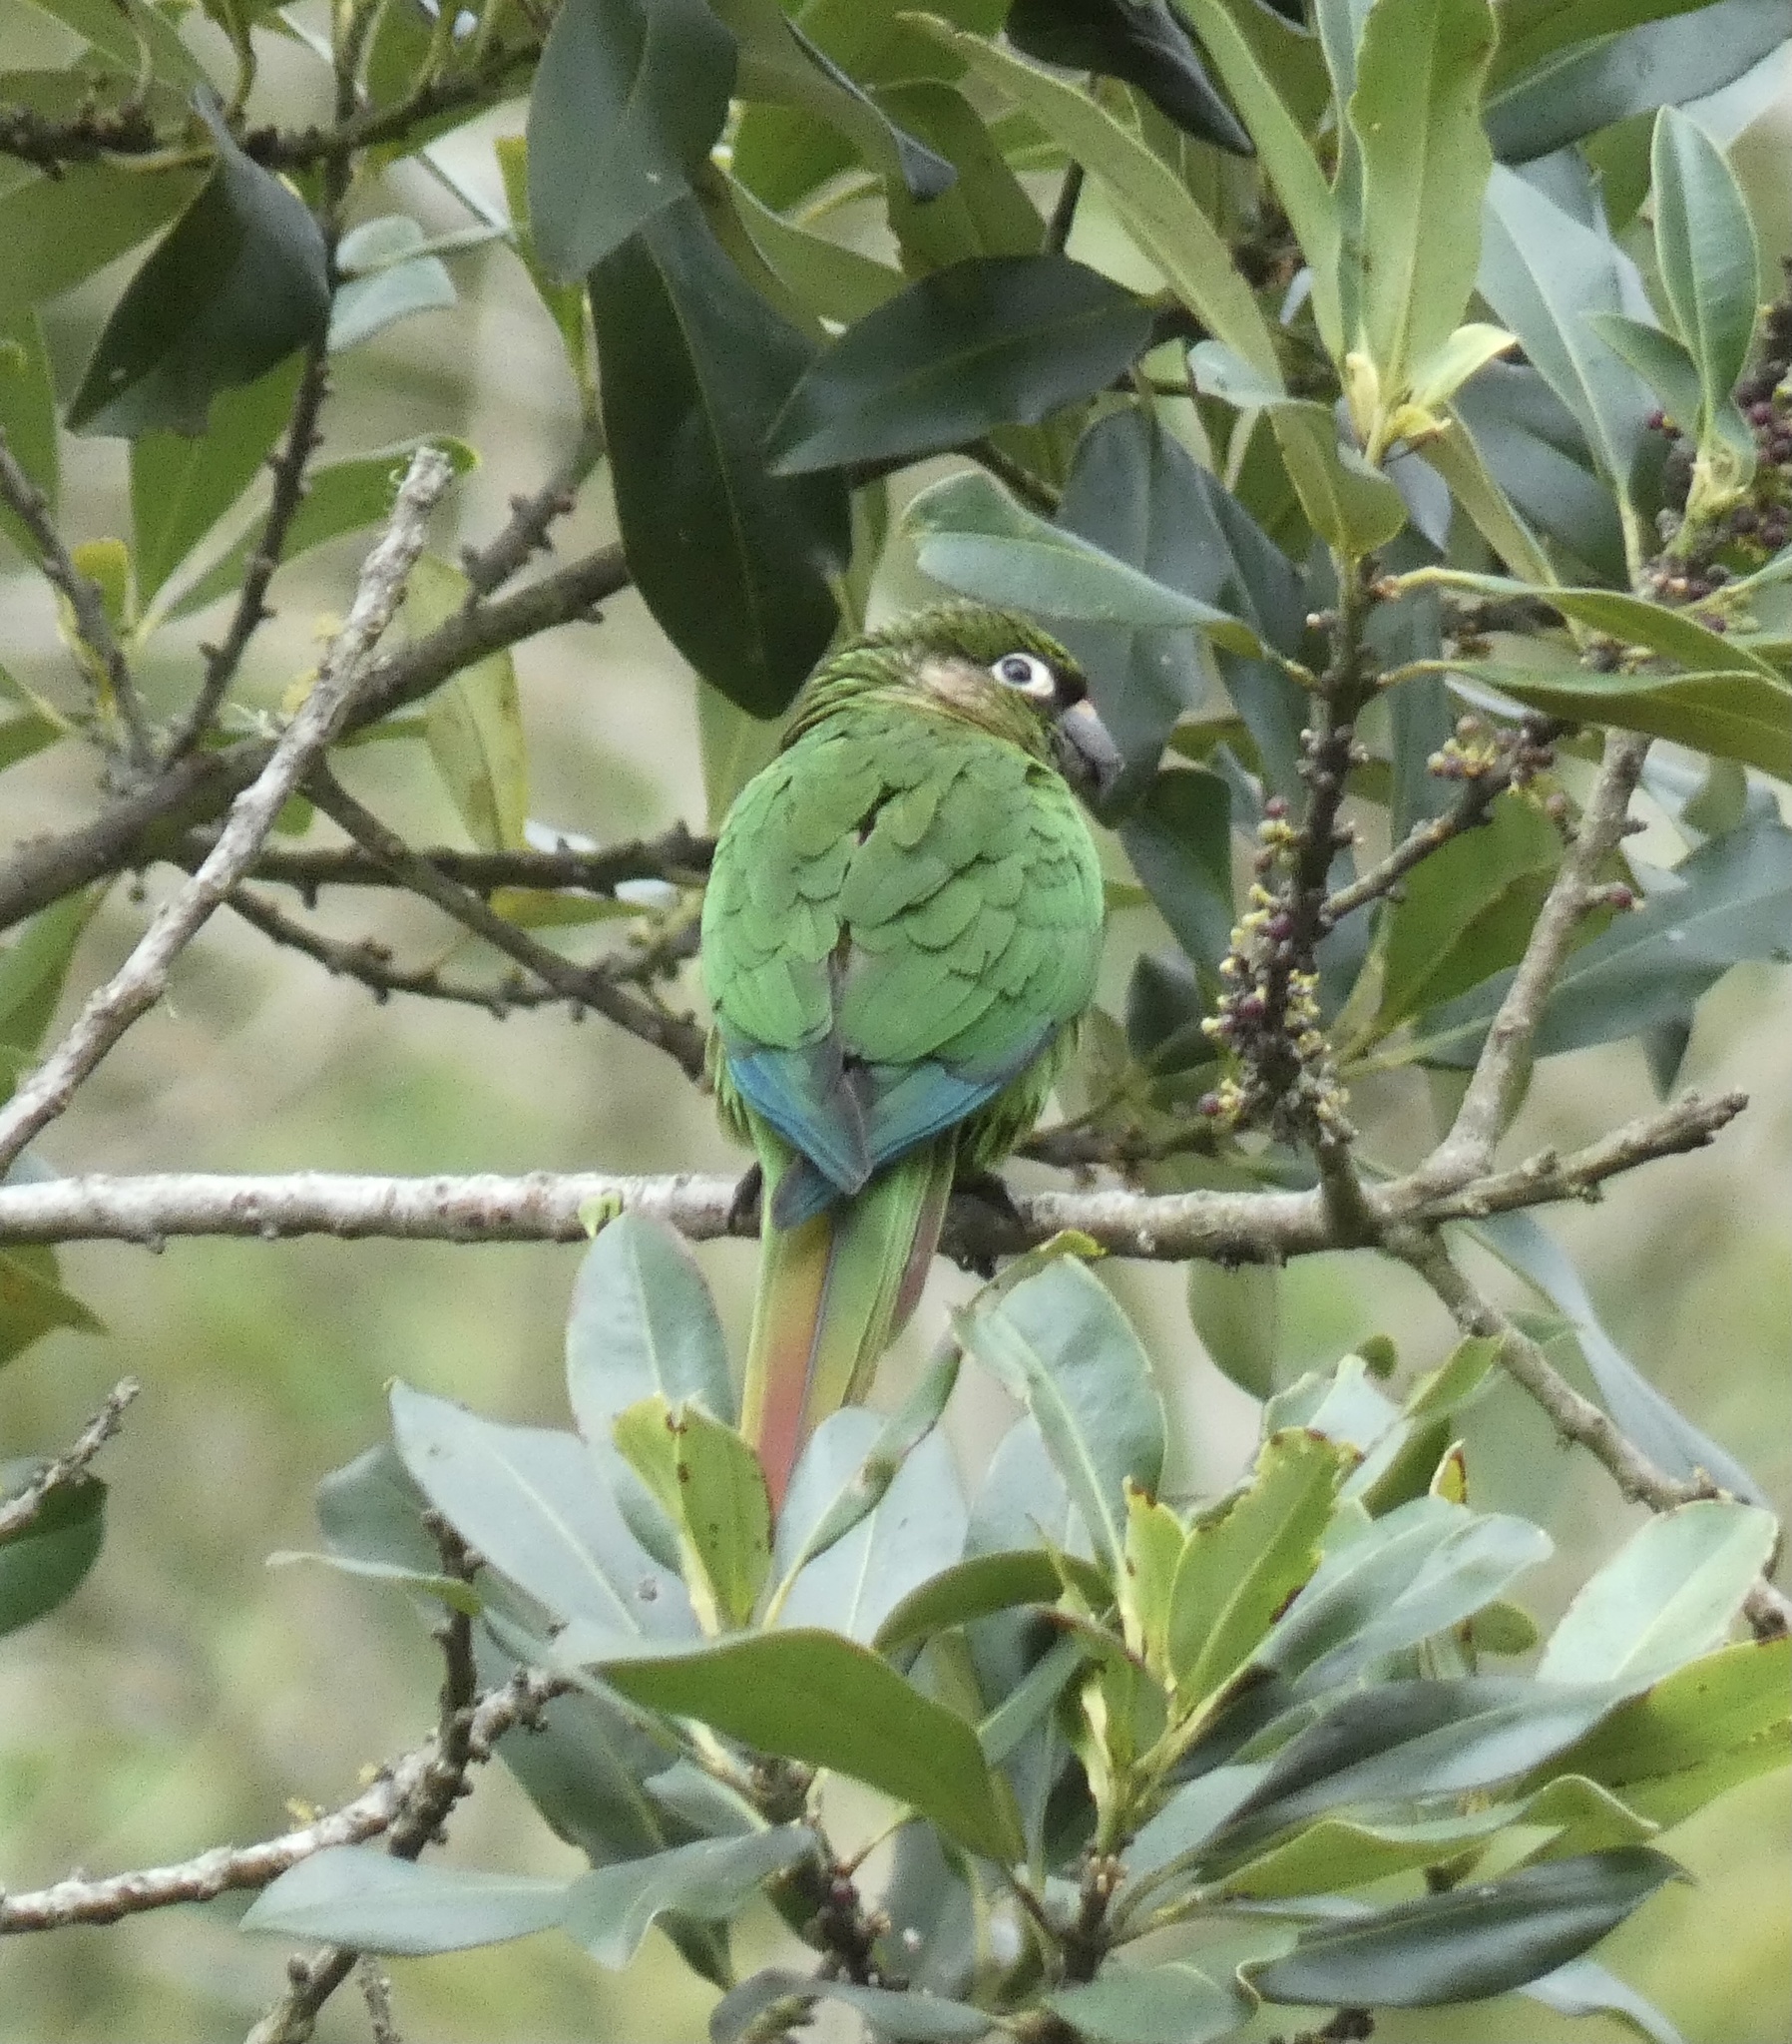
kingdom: Animalia
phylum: Chordata
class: Aves
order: Psittaciformes
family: Psittacidae
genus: Pyrrhura
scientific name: Pyrrhura frontalis
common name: Maroon-bellied parakeet
